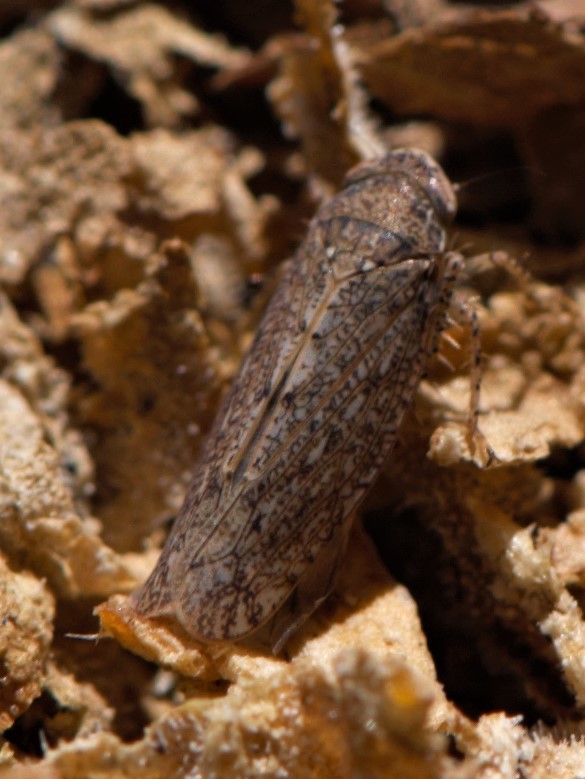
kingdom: Animalia
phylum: Arthropoda
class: Insecta
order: Hemiptera
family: Cicadellidae
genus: Texananus
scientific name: Texananus
